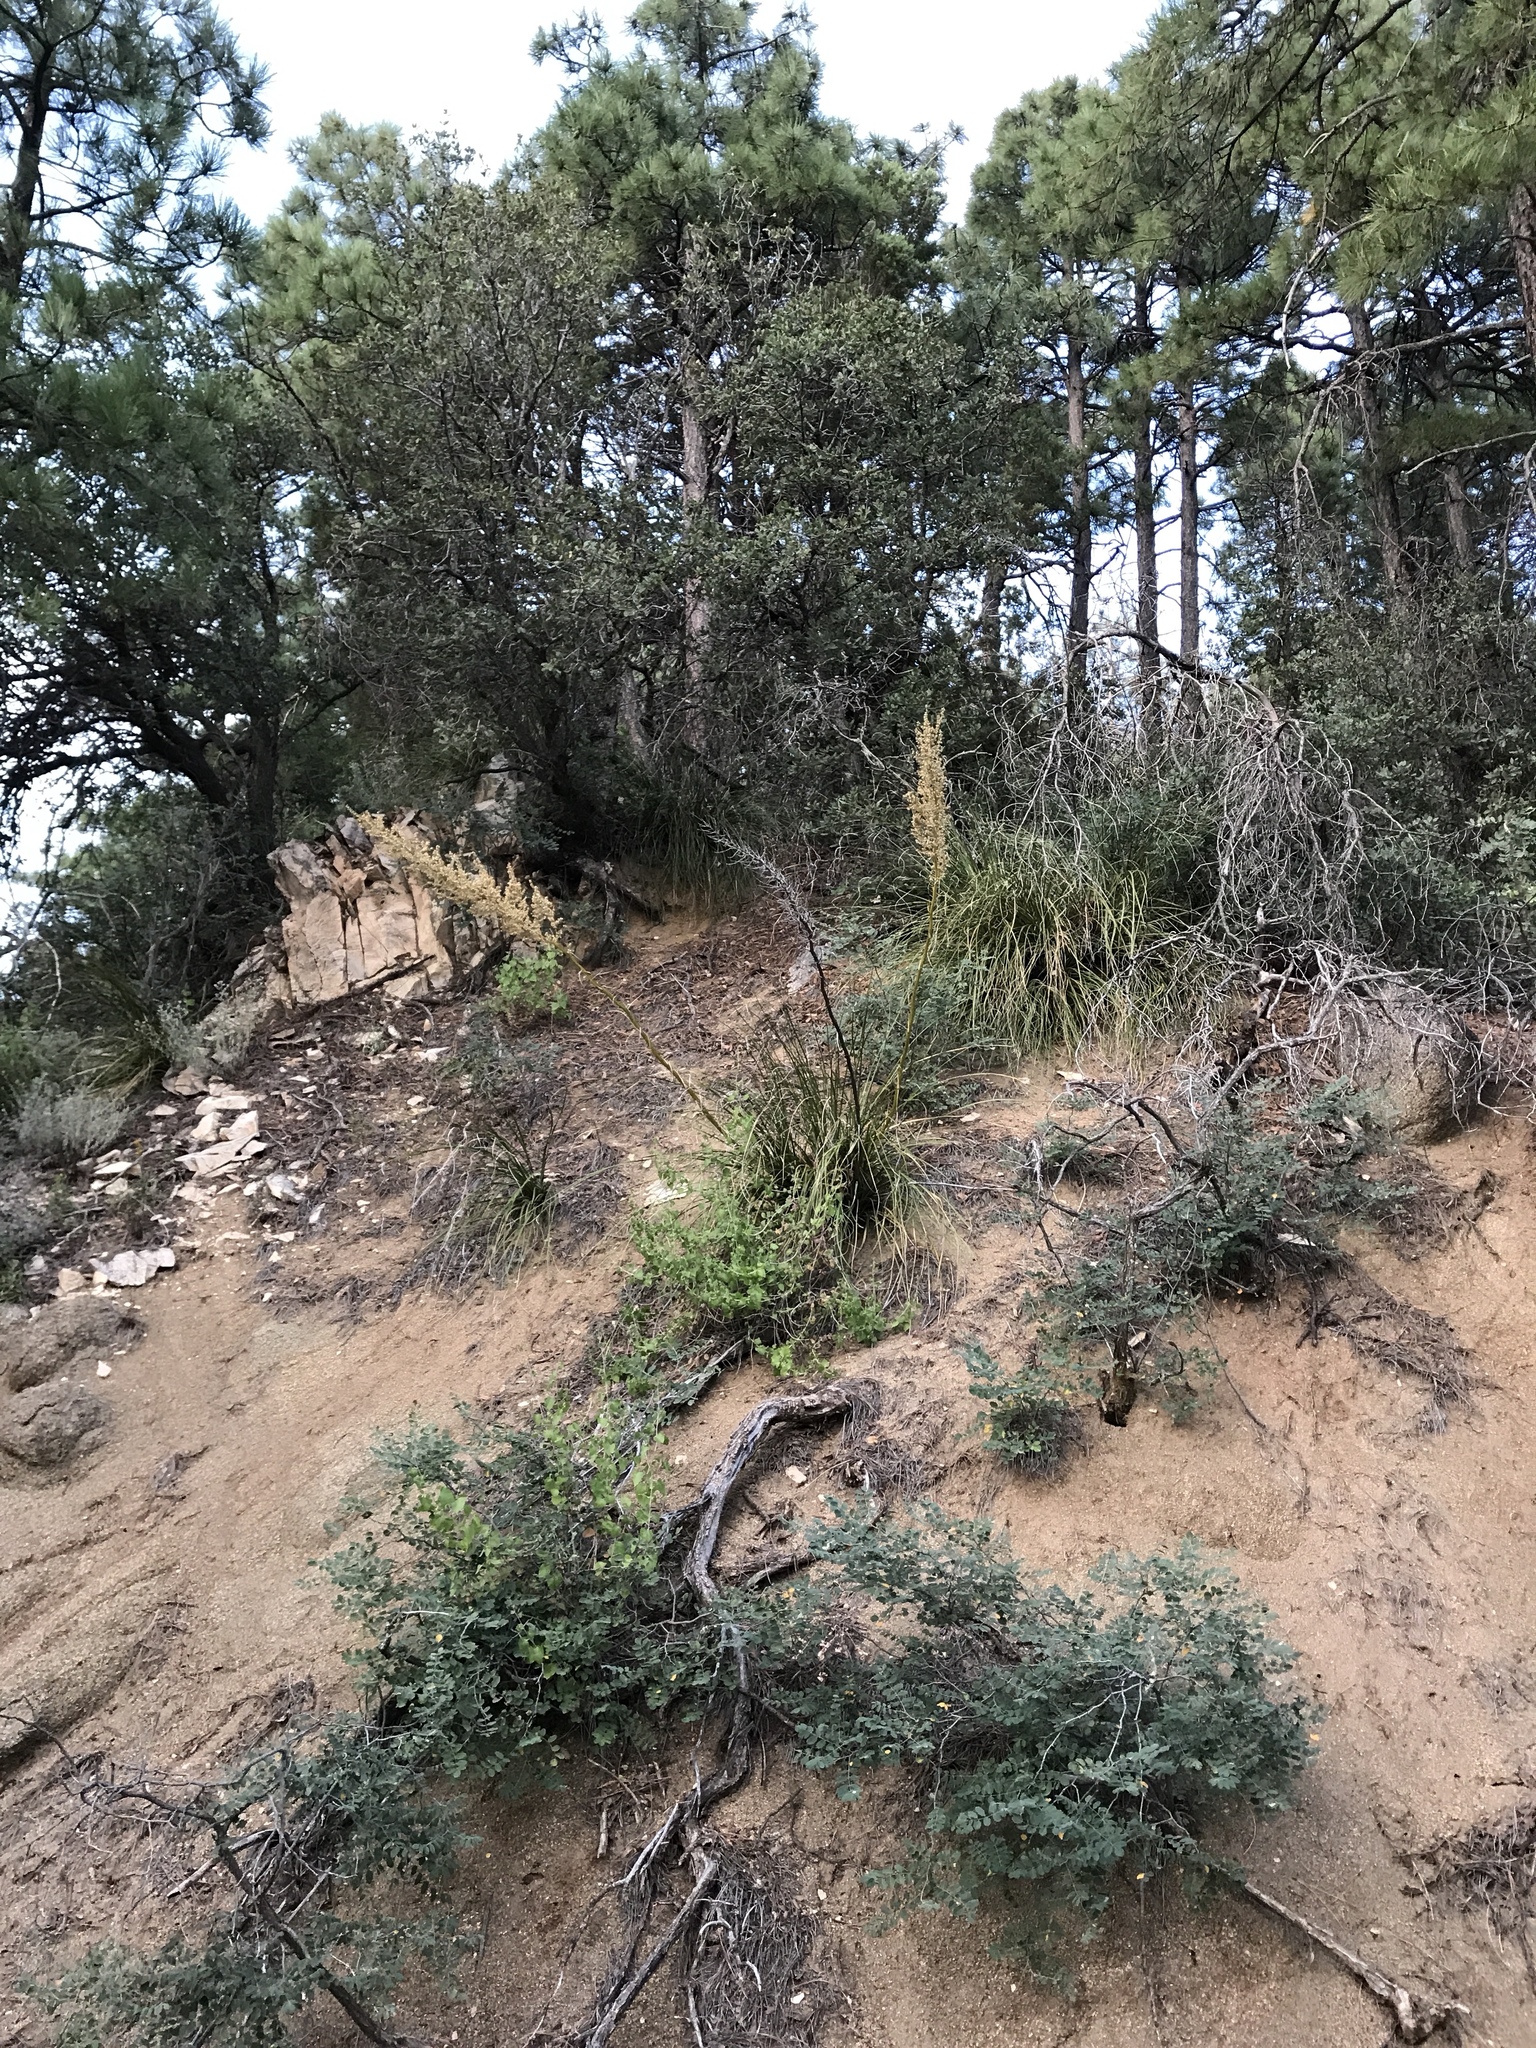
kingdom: Plantae
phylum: Tracheophyta
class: Liliopsida
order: Asparagales
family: Asparagaceae
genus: Nolina
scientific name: Nolina microcarpa
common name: Bear-grass
